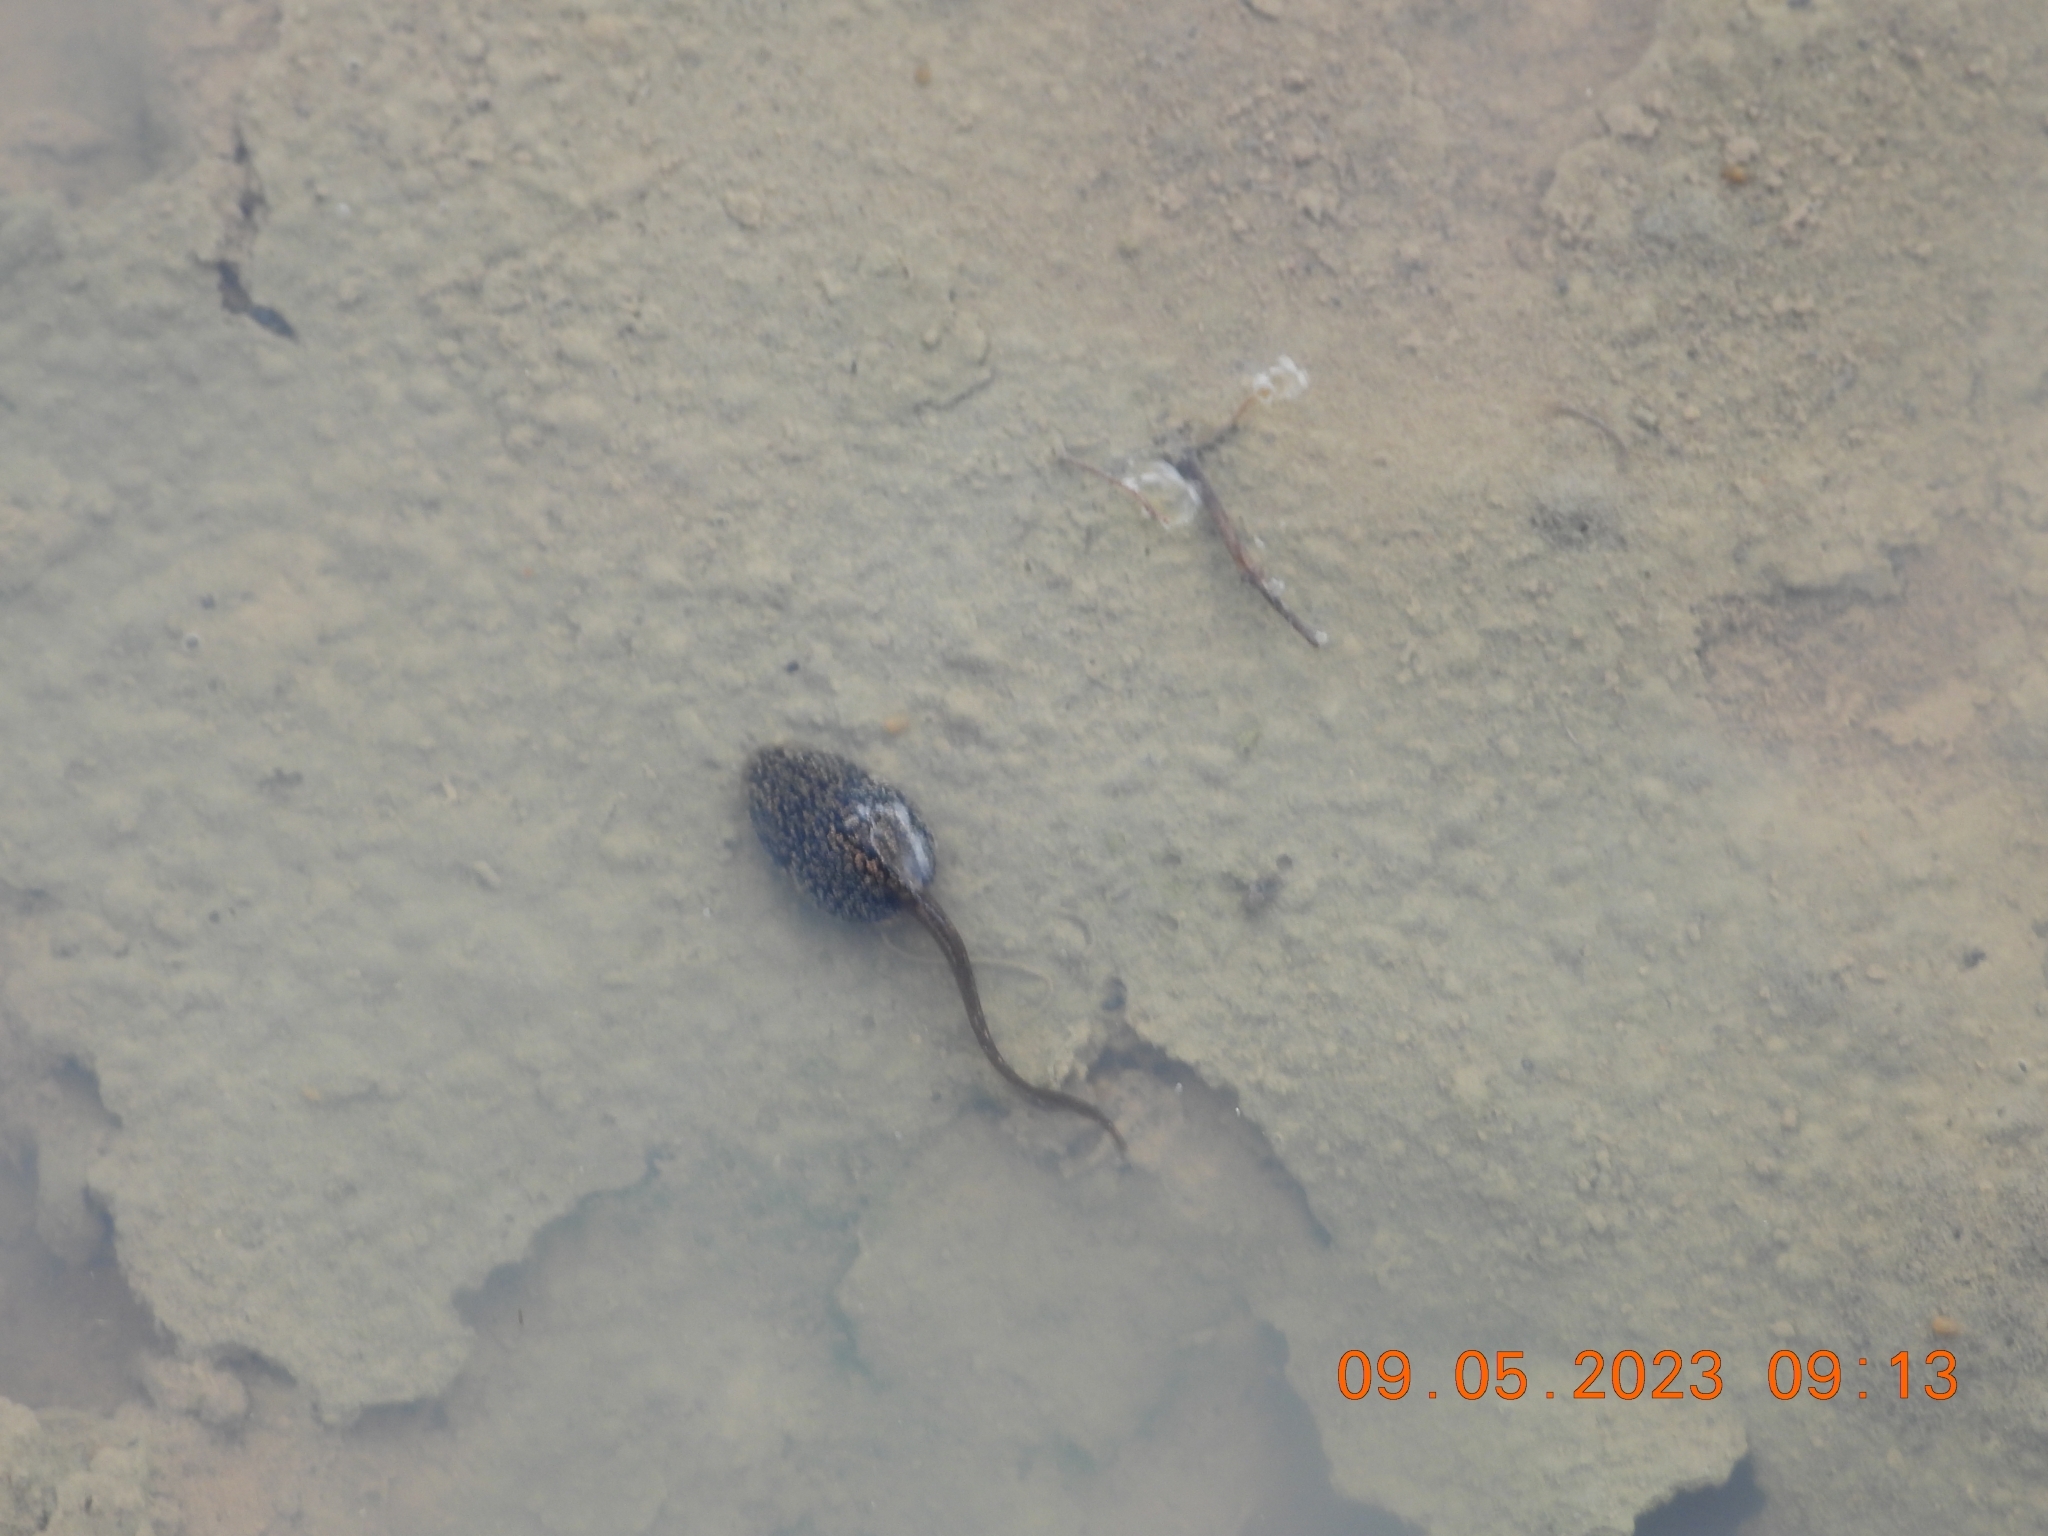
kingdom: Animalia
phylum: Chordata
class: Amphibia
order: Anura
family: Ranidae
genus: Rana
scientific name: Rana temporaria
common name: Common frog
